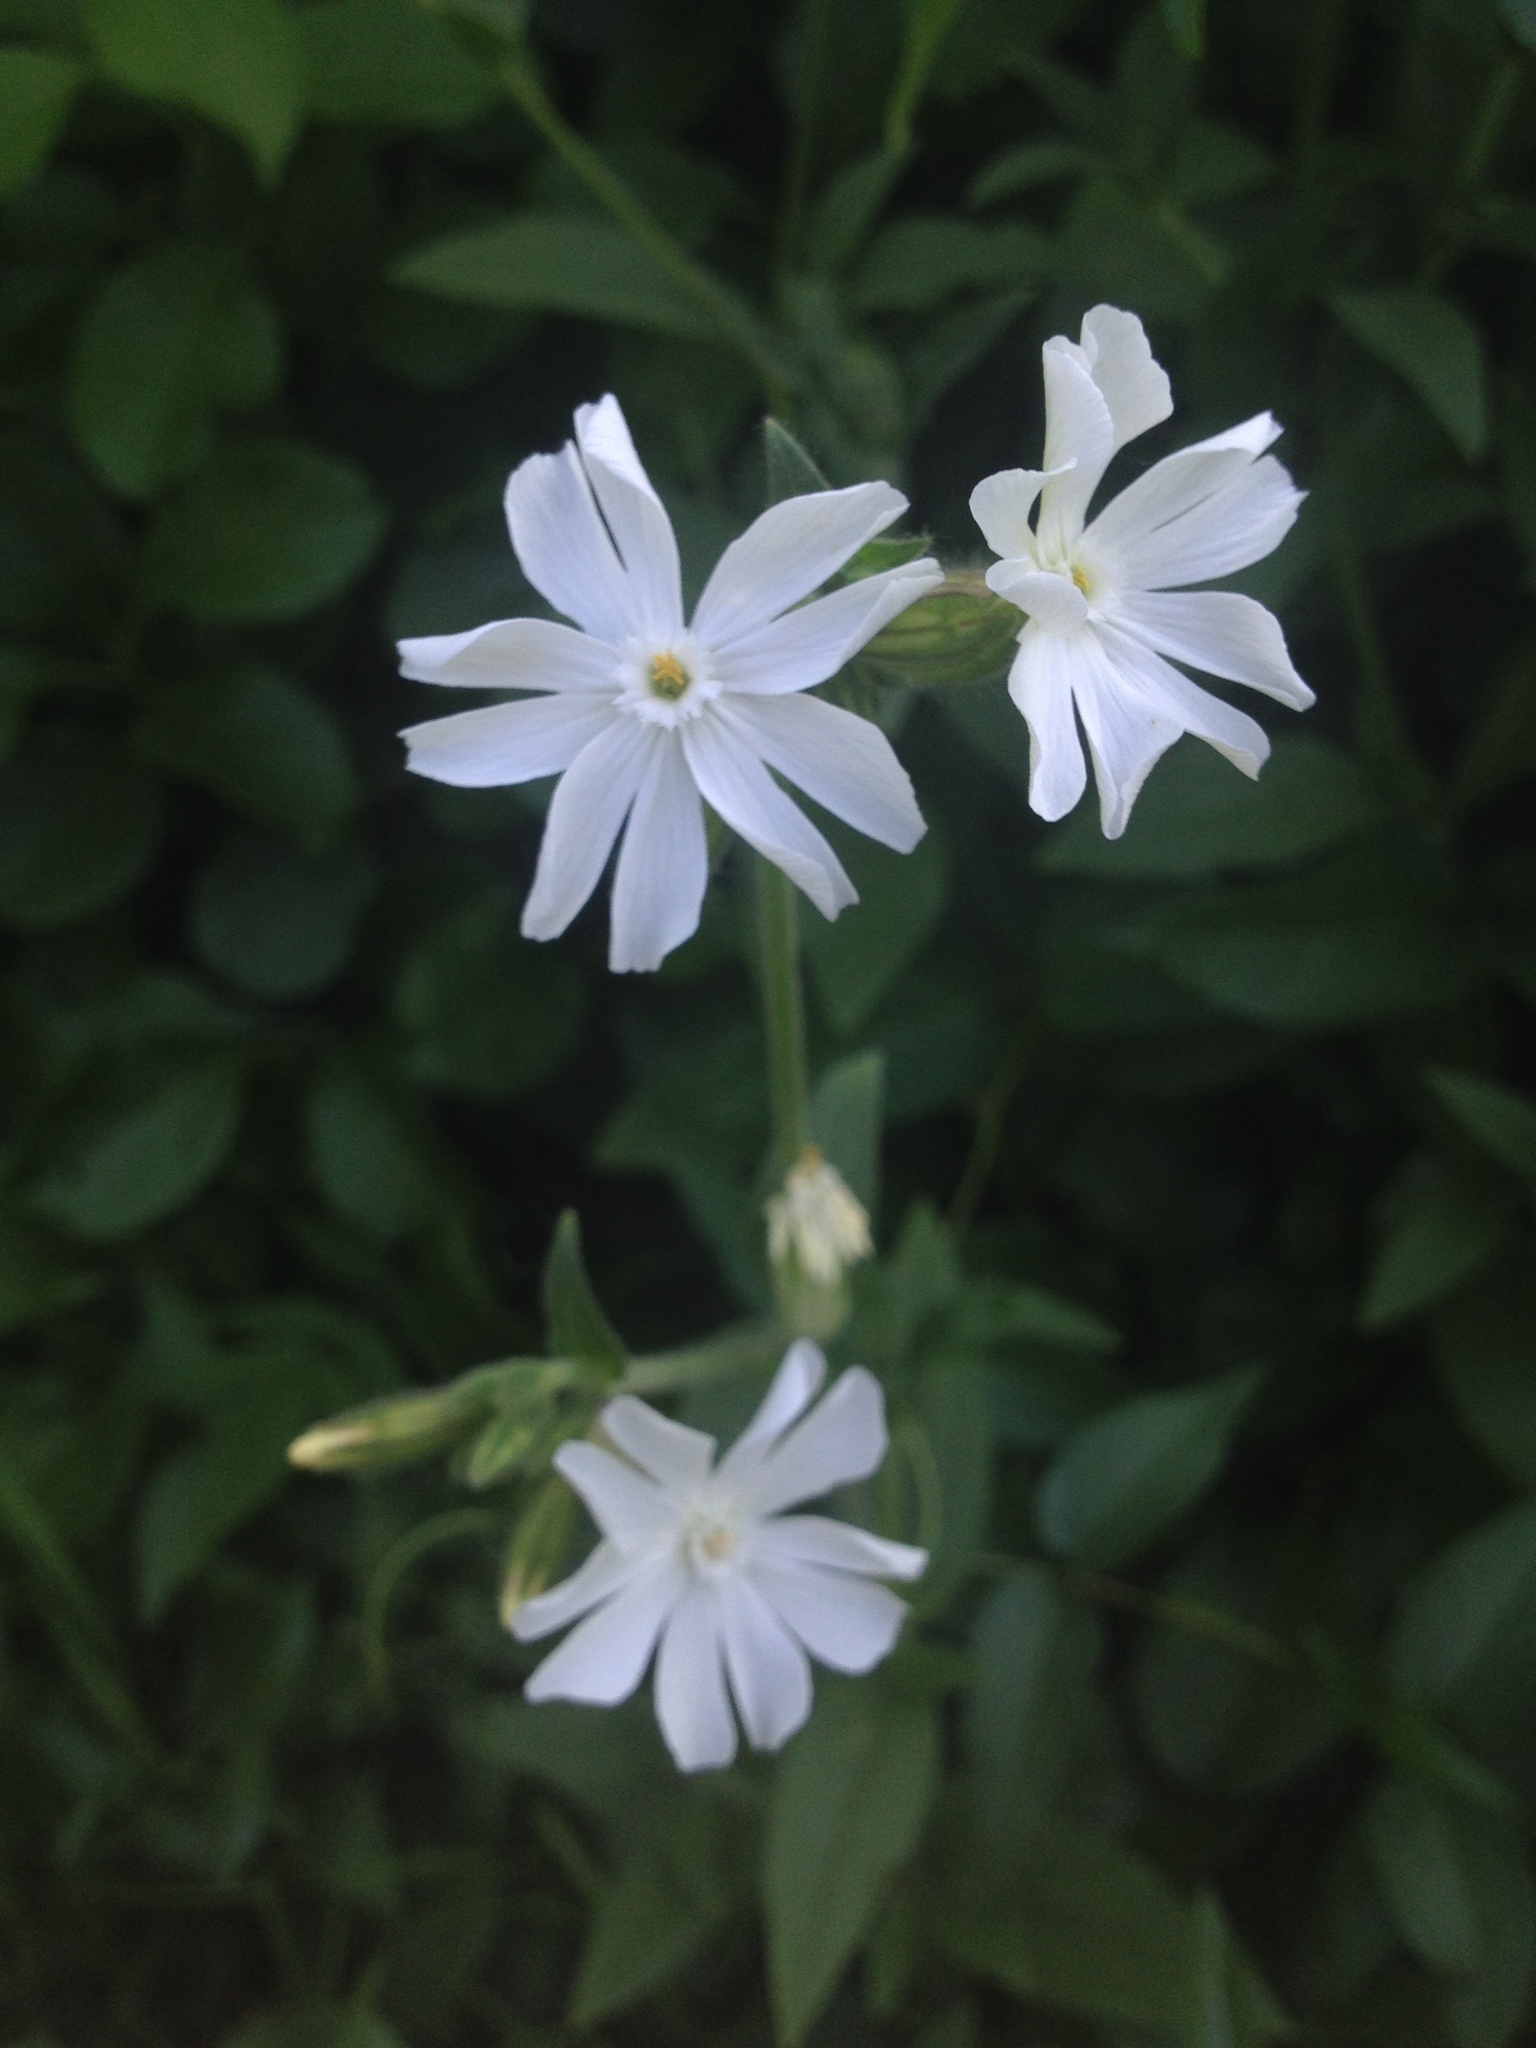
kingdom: Plantae
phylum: Tracheophyta
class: Magnoliopsida
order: Caryophyllales
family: Caryophyllaceae
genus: Silene
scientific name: Silene latifolia
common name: White campion
